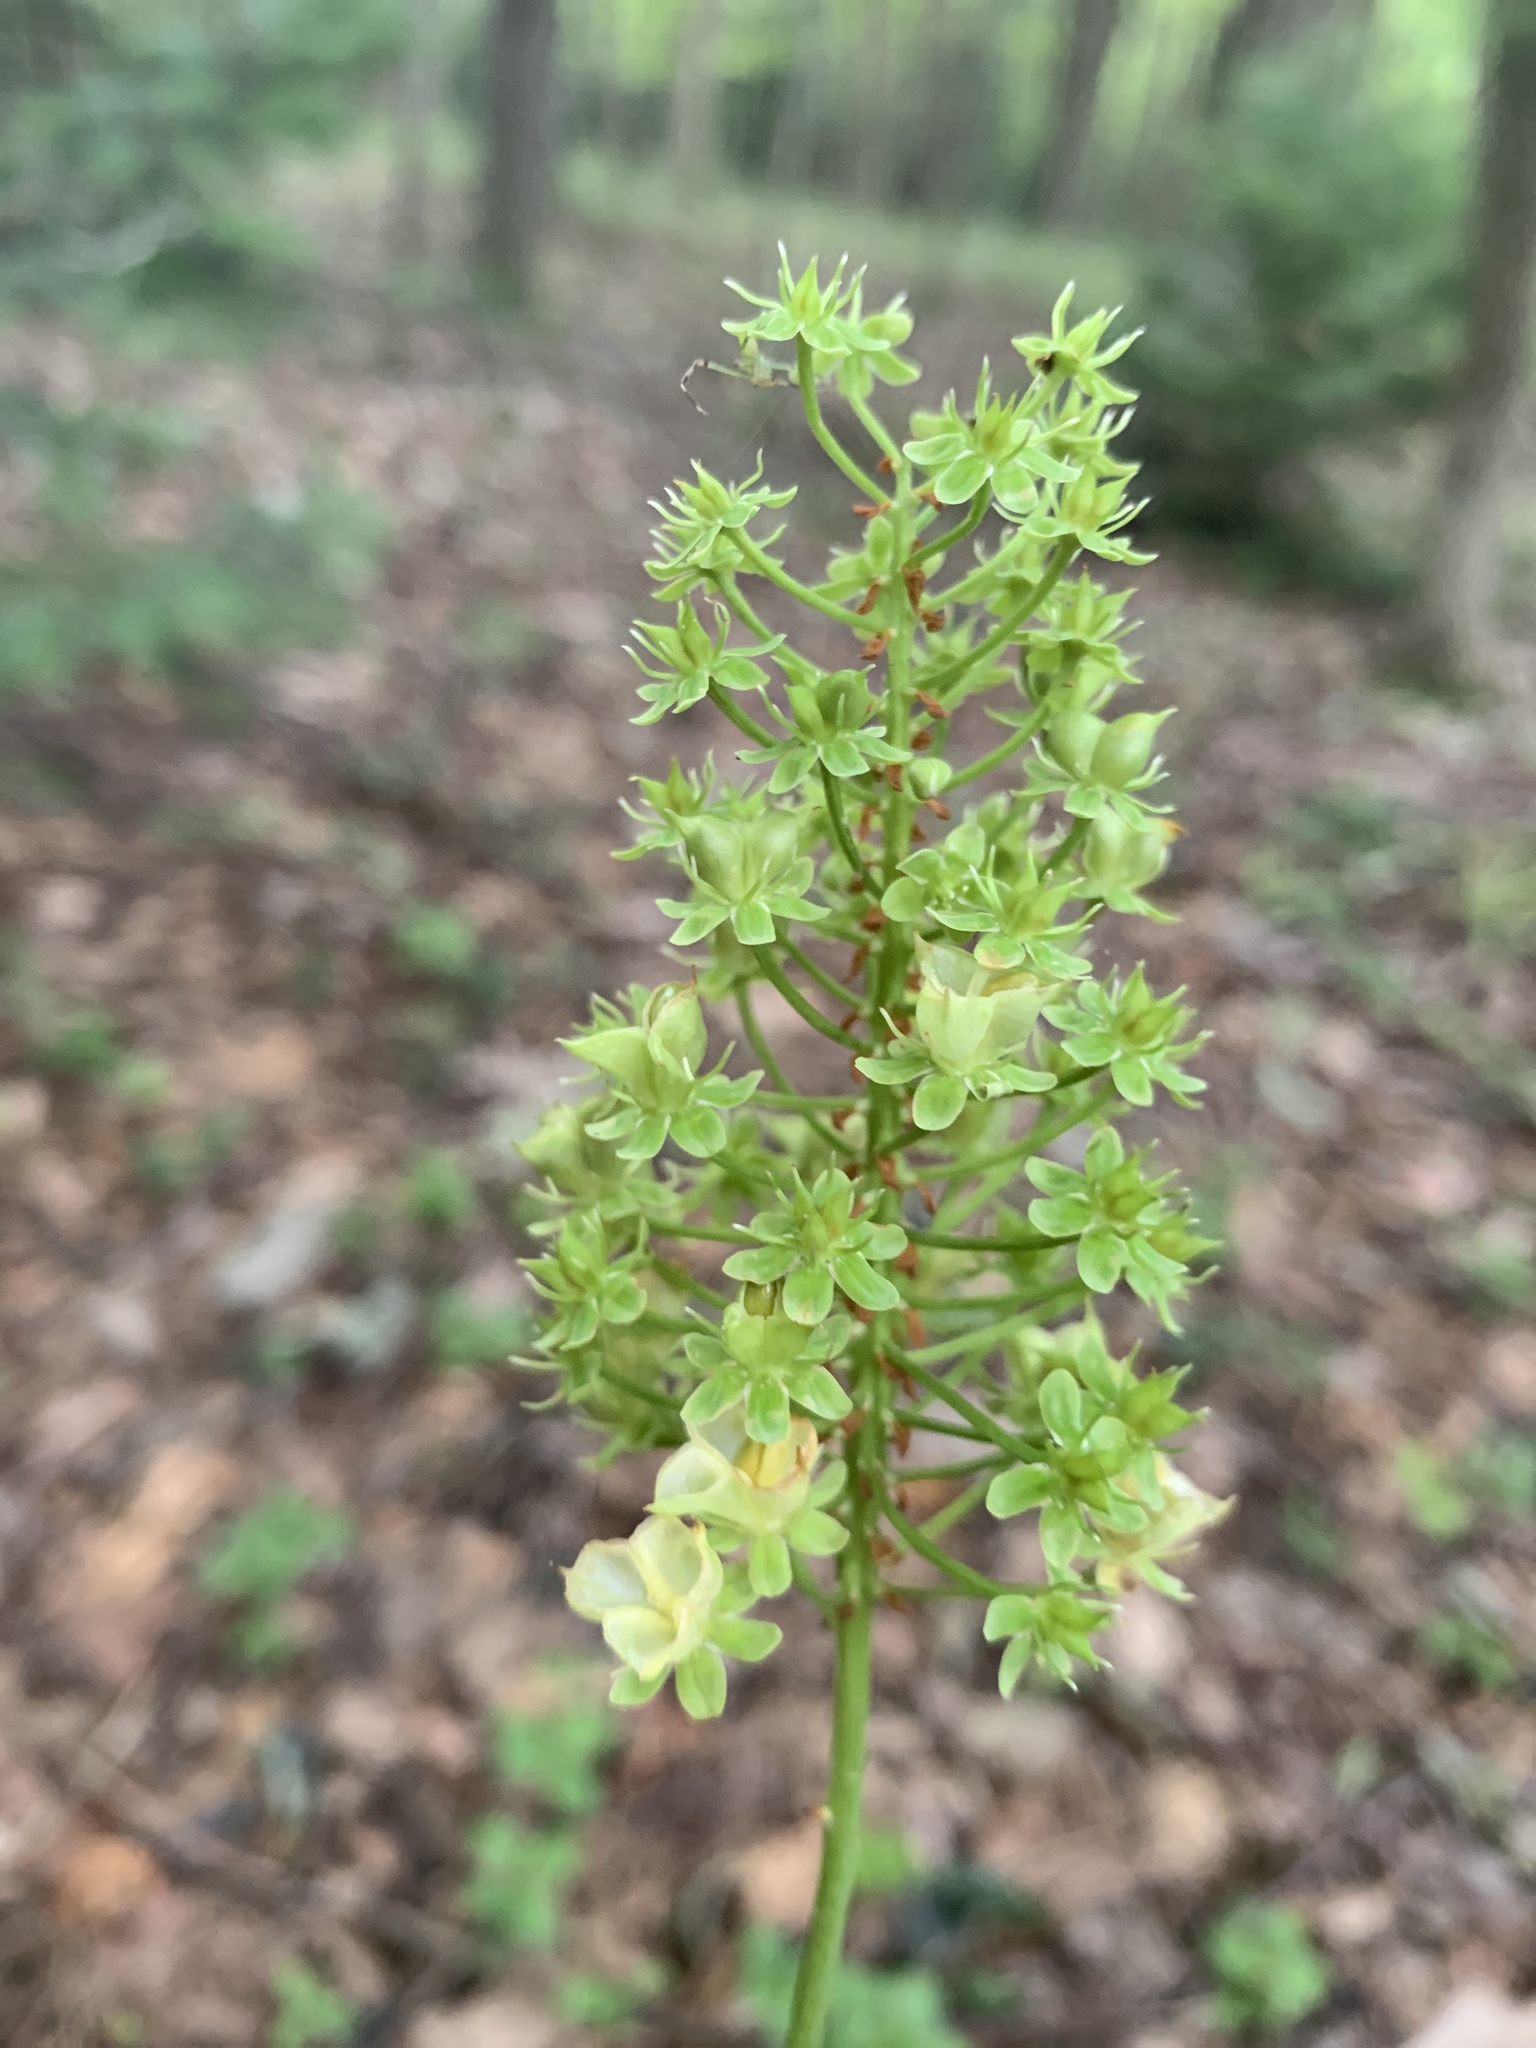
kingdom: Plantae
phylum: Tracheophyta
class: Liliopsida
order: Liliales
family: Melanthiaceae
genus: Amianthium
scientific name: Amianthium muscitoxicum
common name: Fly-poison
